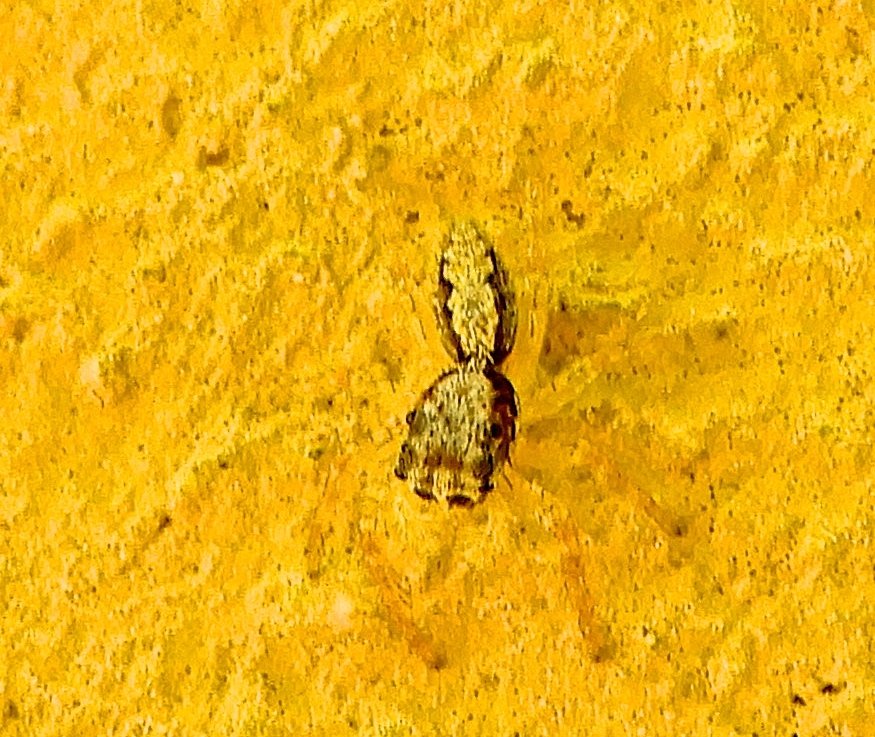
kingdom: Animalia
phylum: Arthropoda
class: Arachnida
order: Araneae
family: Salticidae
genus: Balmaceda
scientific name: Balmaceda
